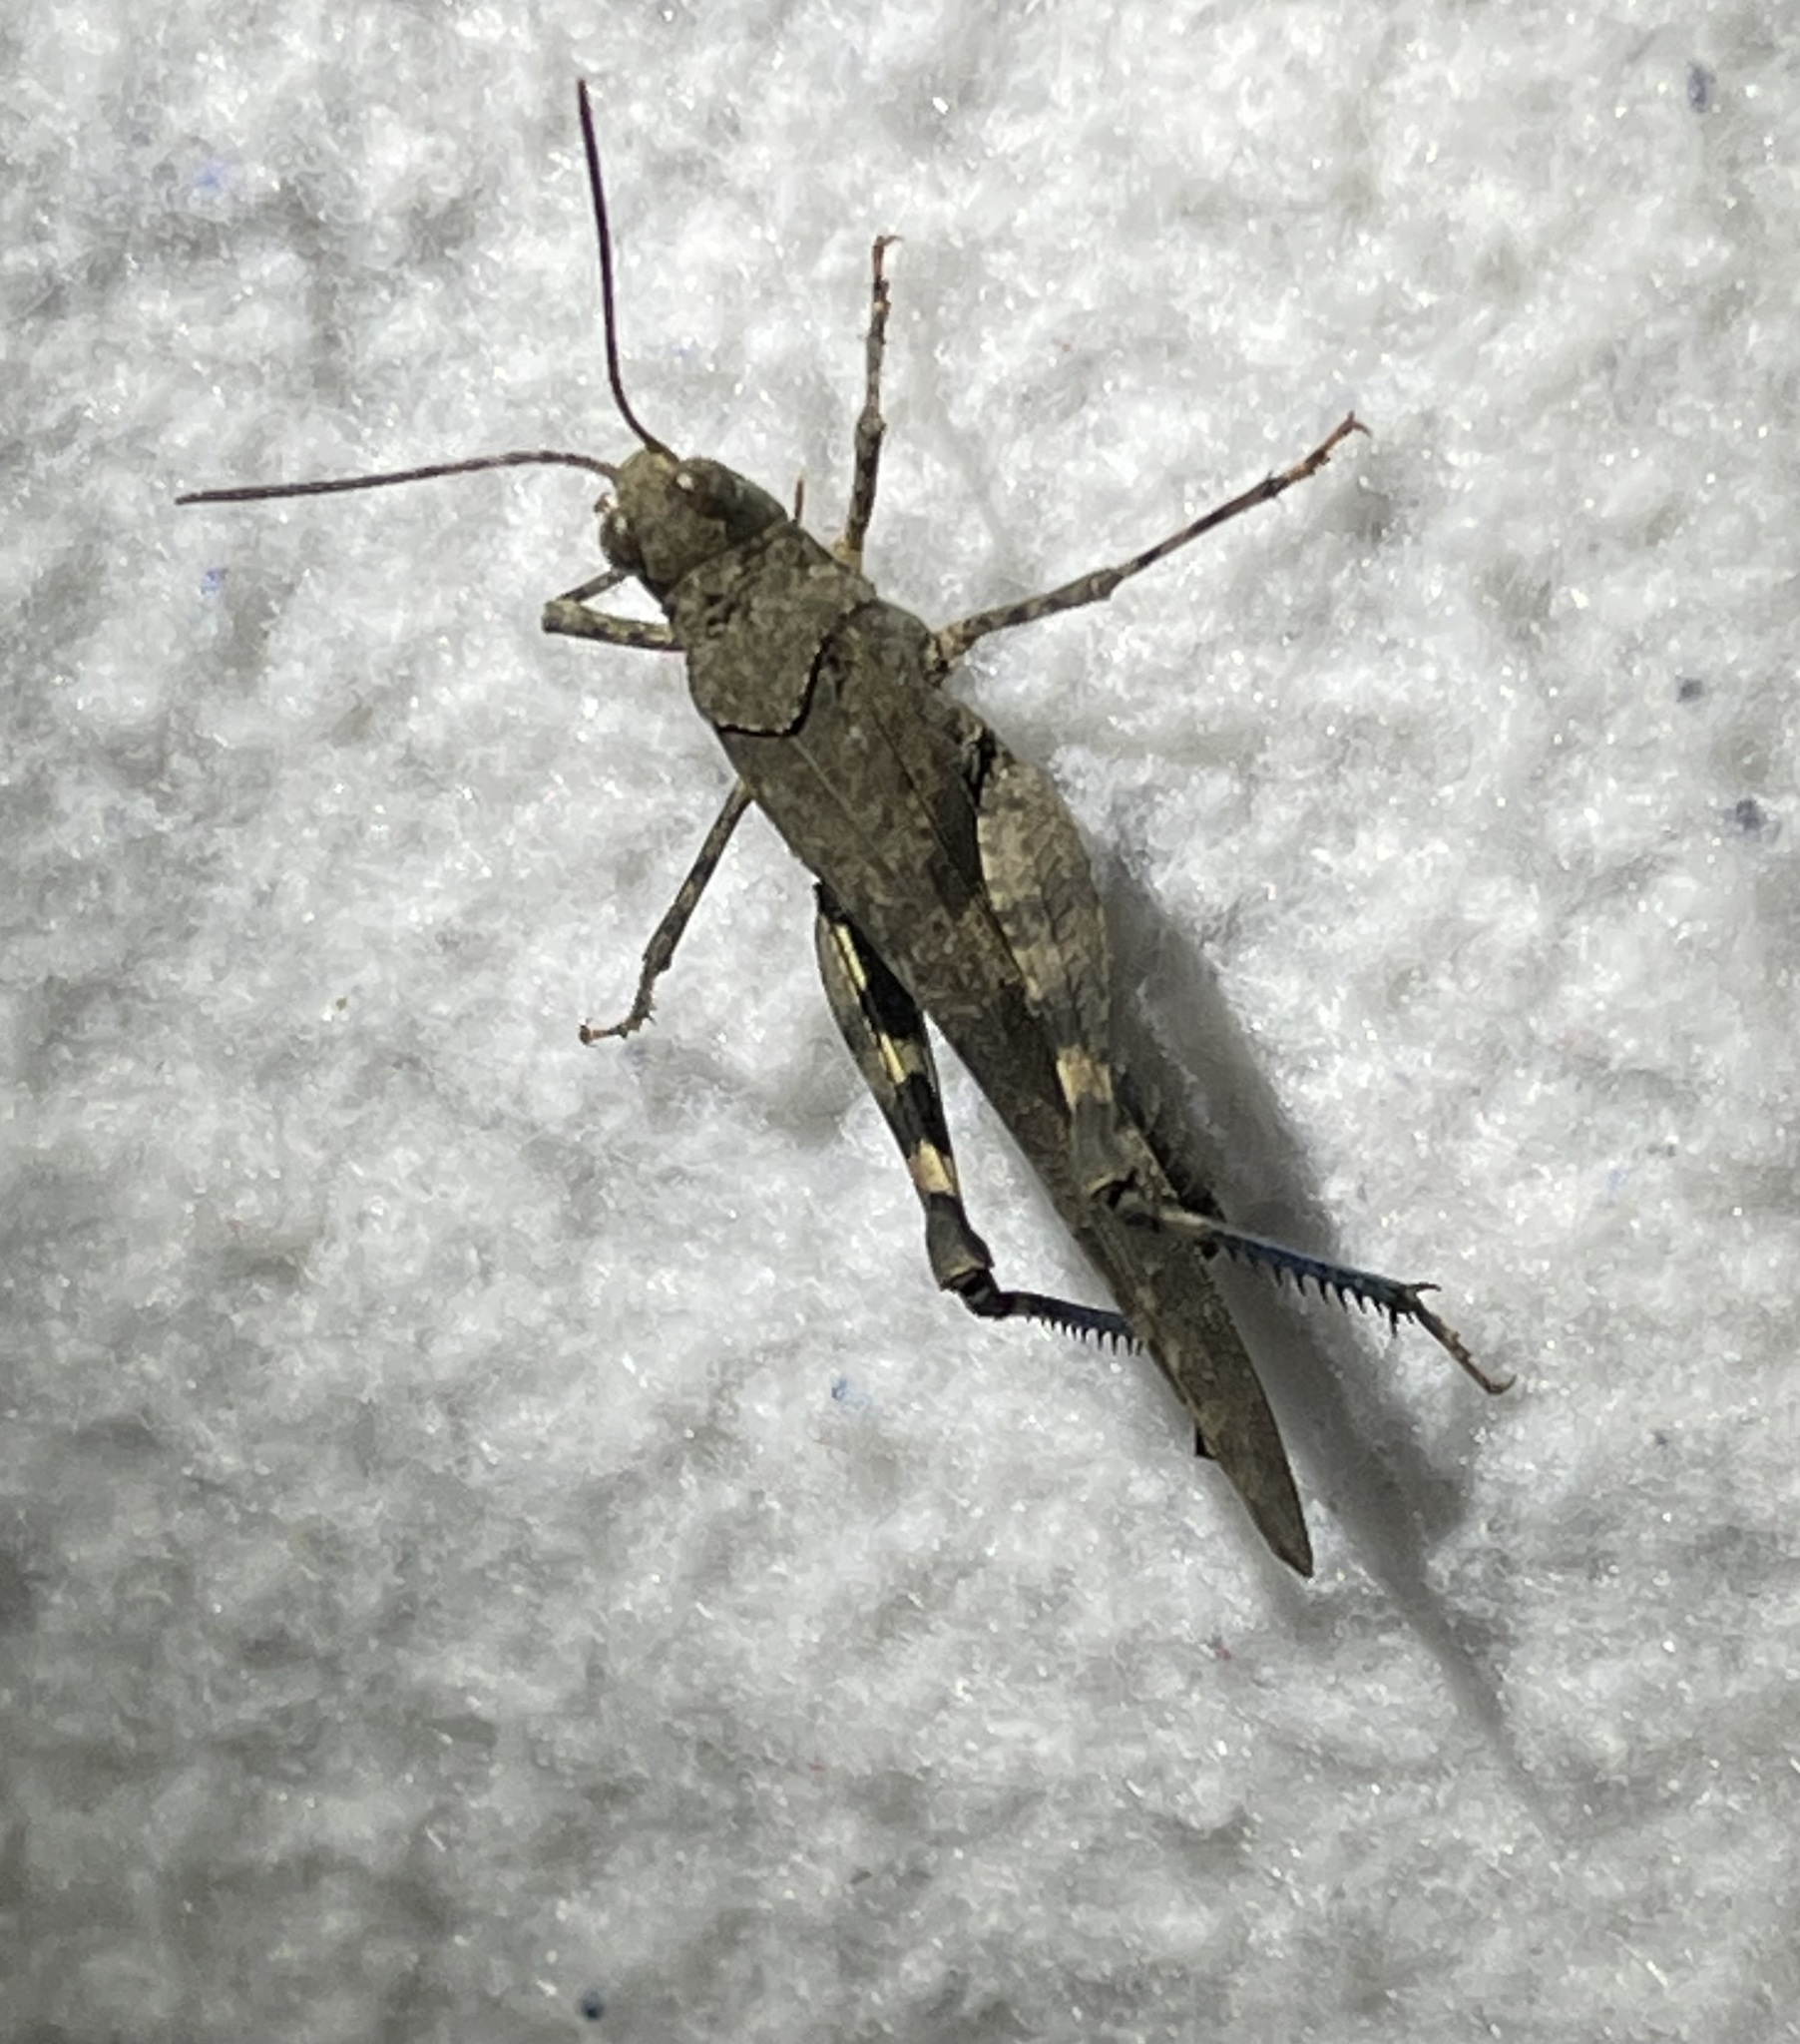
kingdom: Animalia
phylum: Arthropoda
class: Insecta
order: Orthoptera
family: Acrididae
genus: Trimerotropis
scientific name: Trimerotropis fontana
